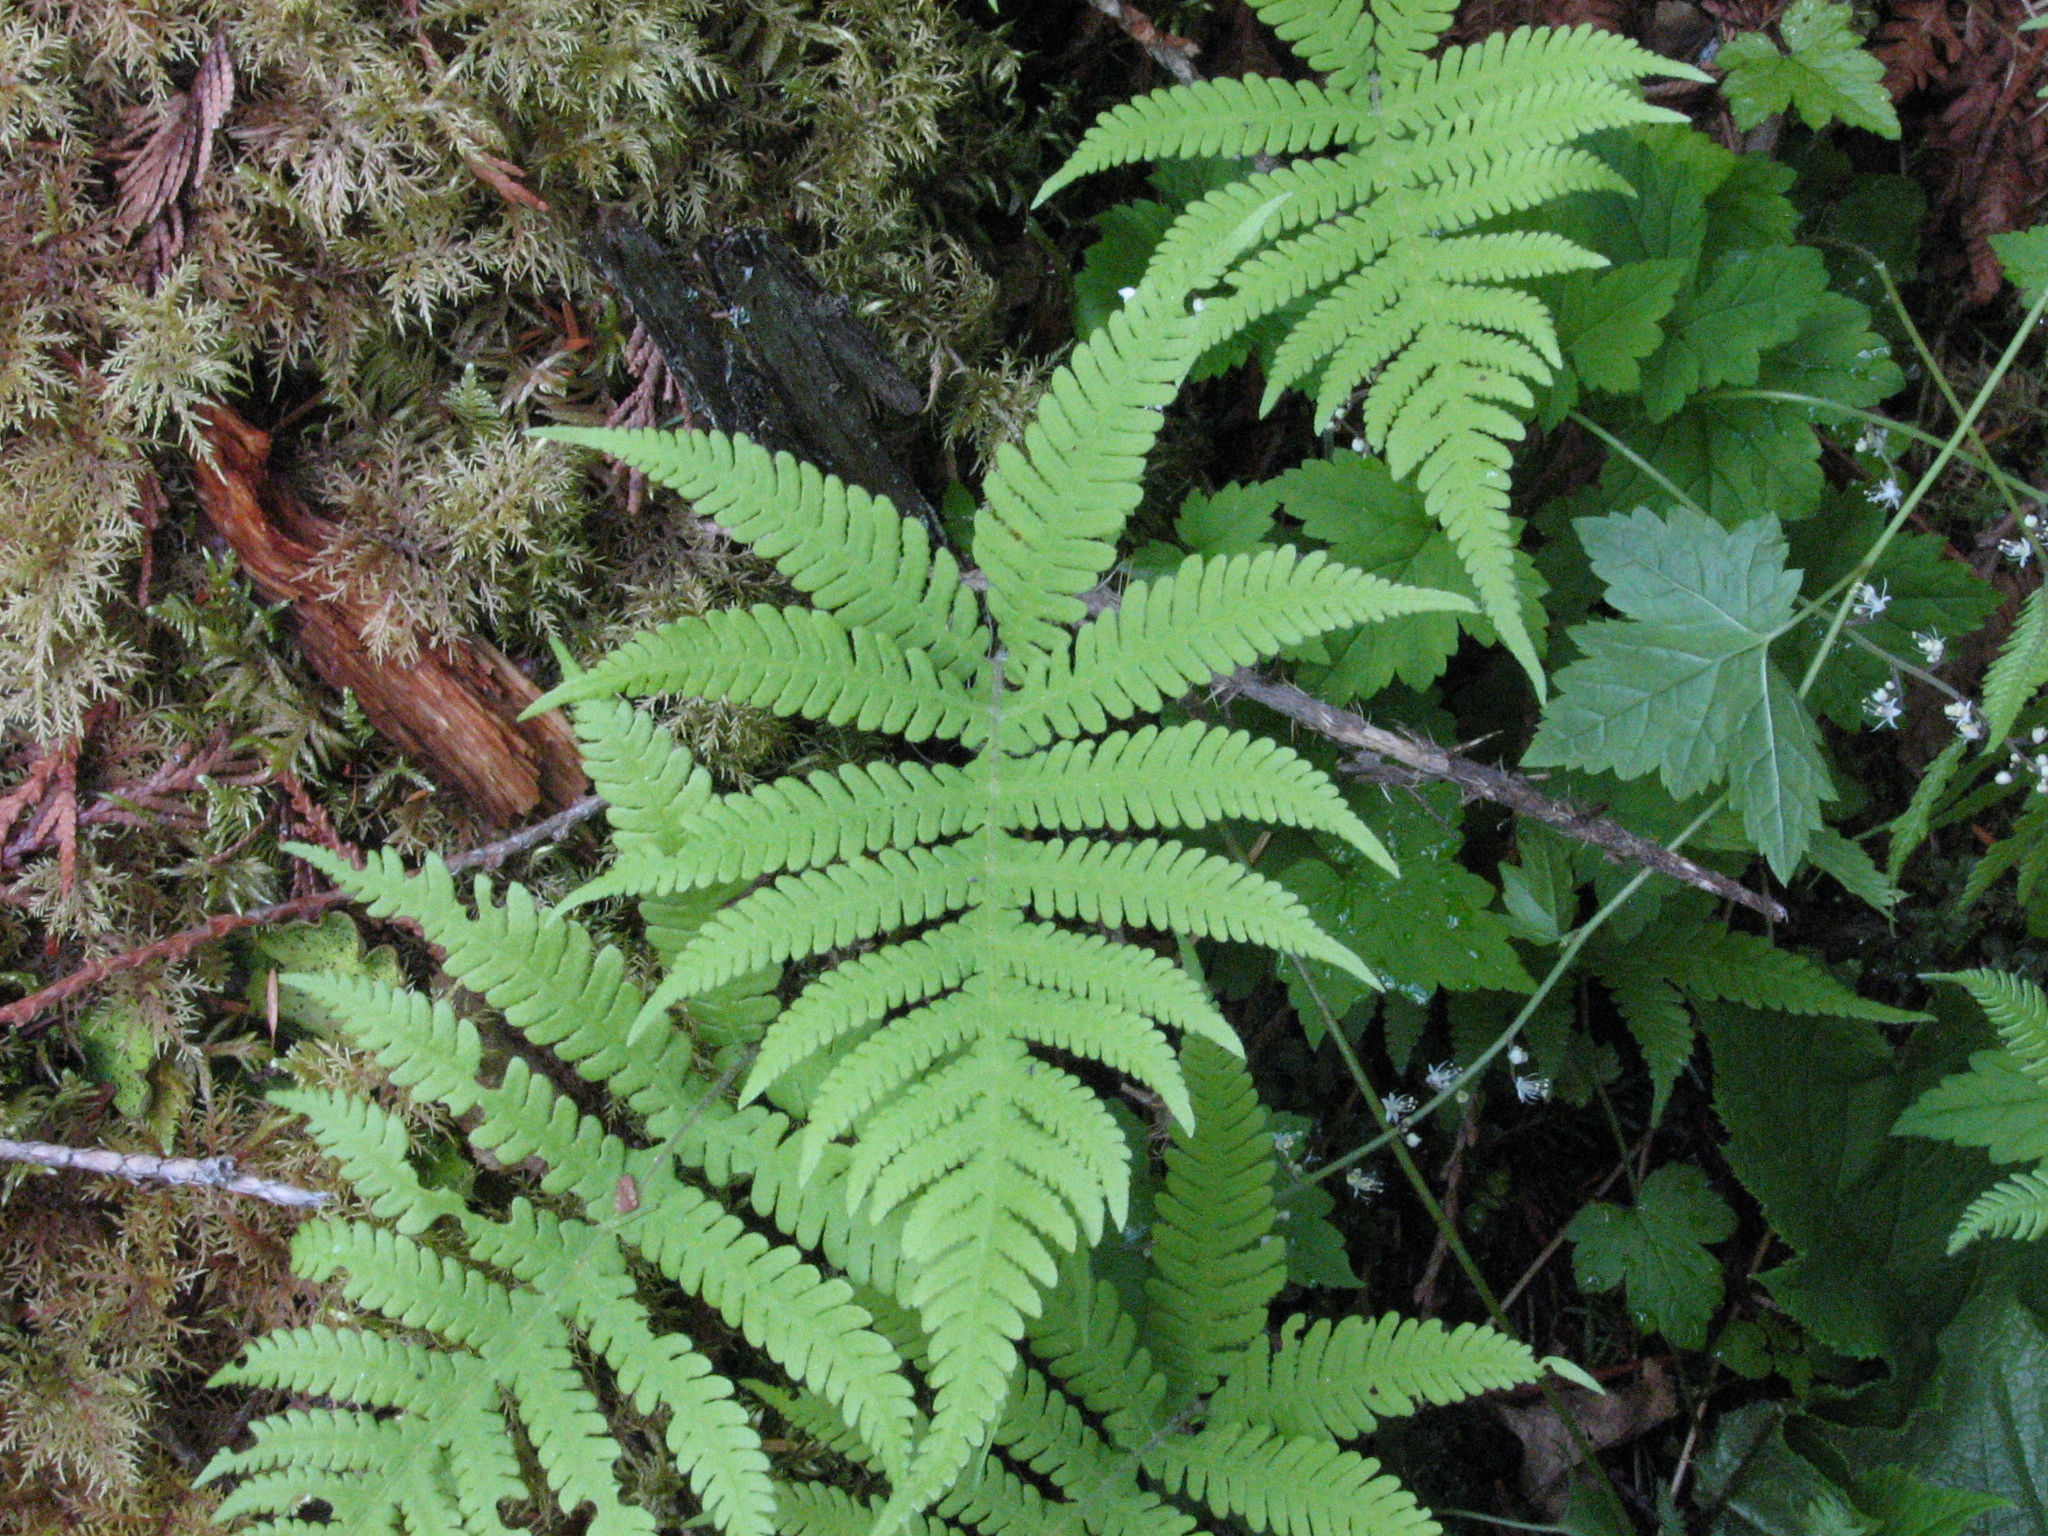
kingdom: Plantae
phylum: Tracheophyta
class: Polypodiopsida
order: Polypodiales
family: Thelypteridaceae
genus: Phegopteris
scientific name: Phegopteris connectilis
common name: Beech fern
